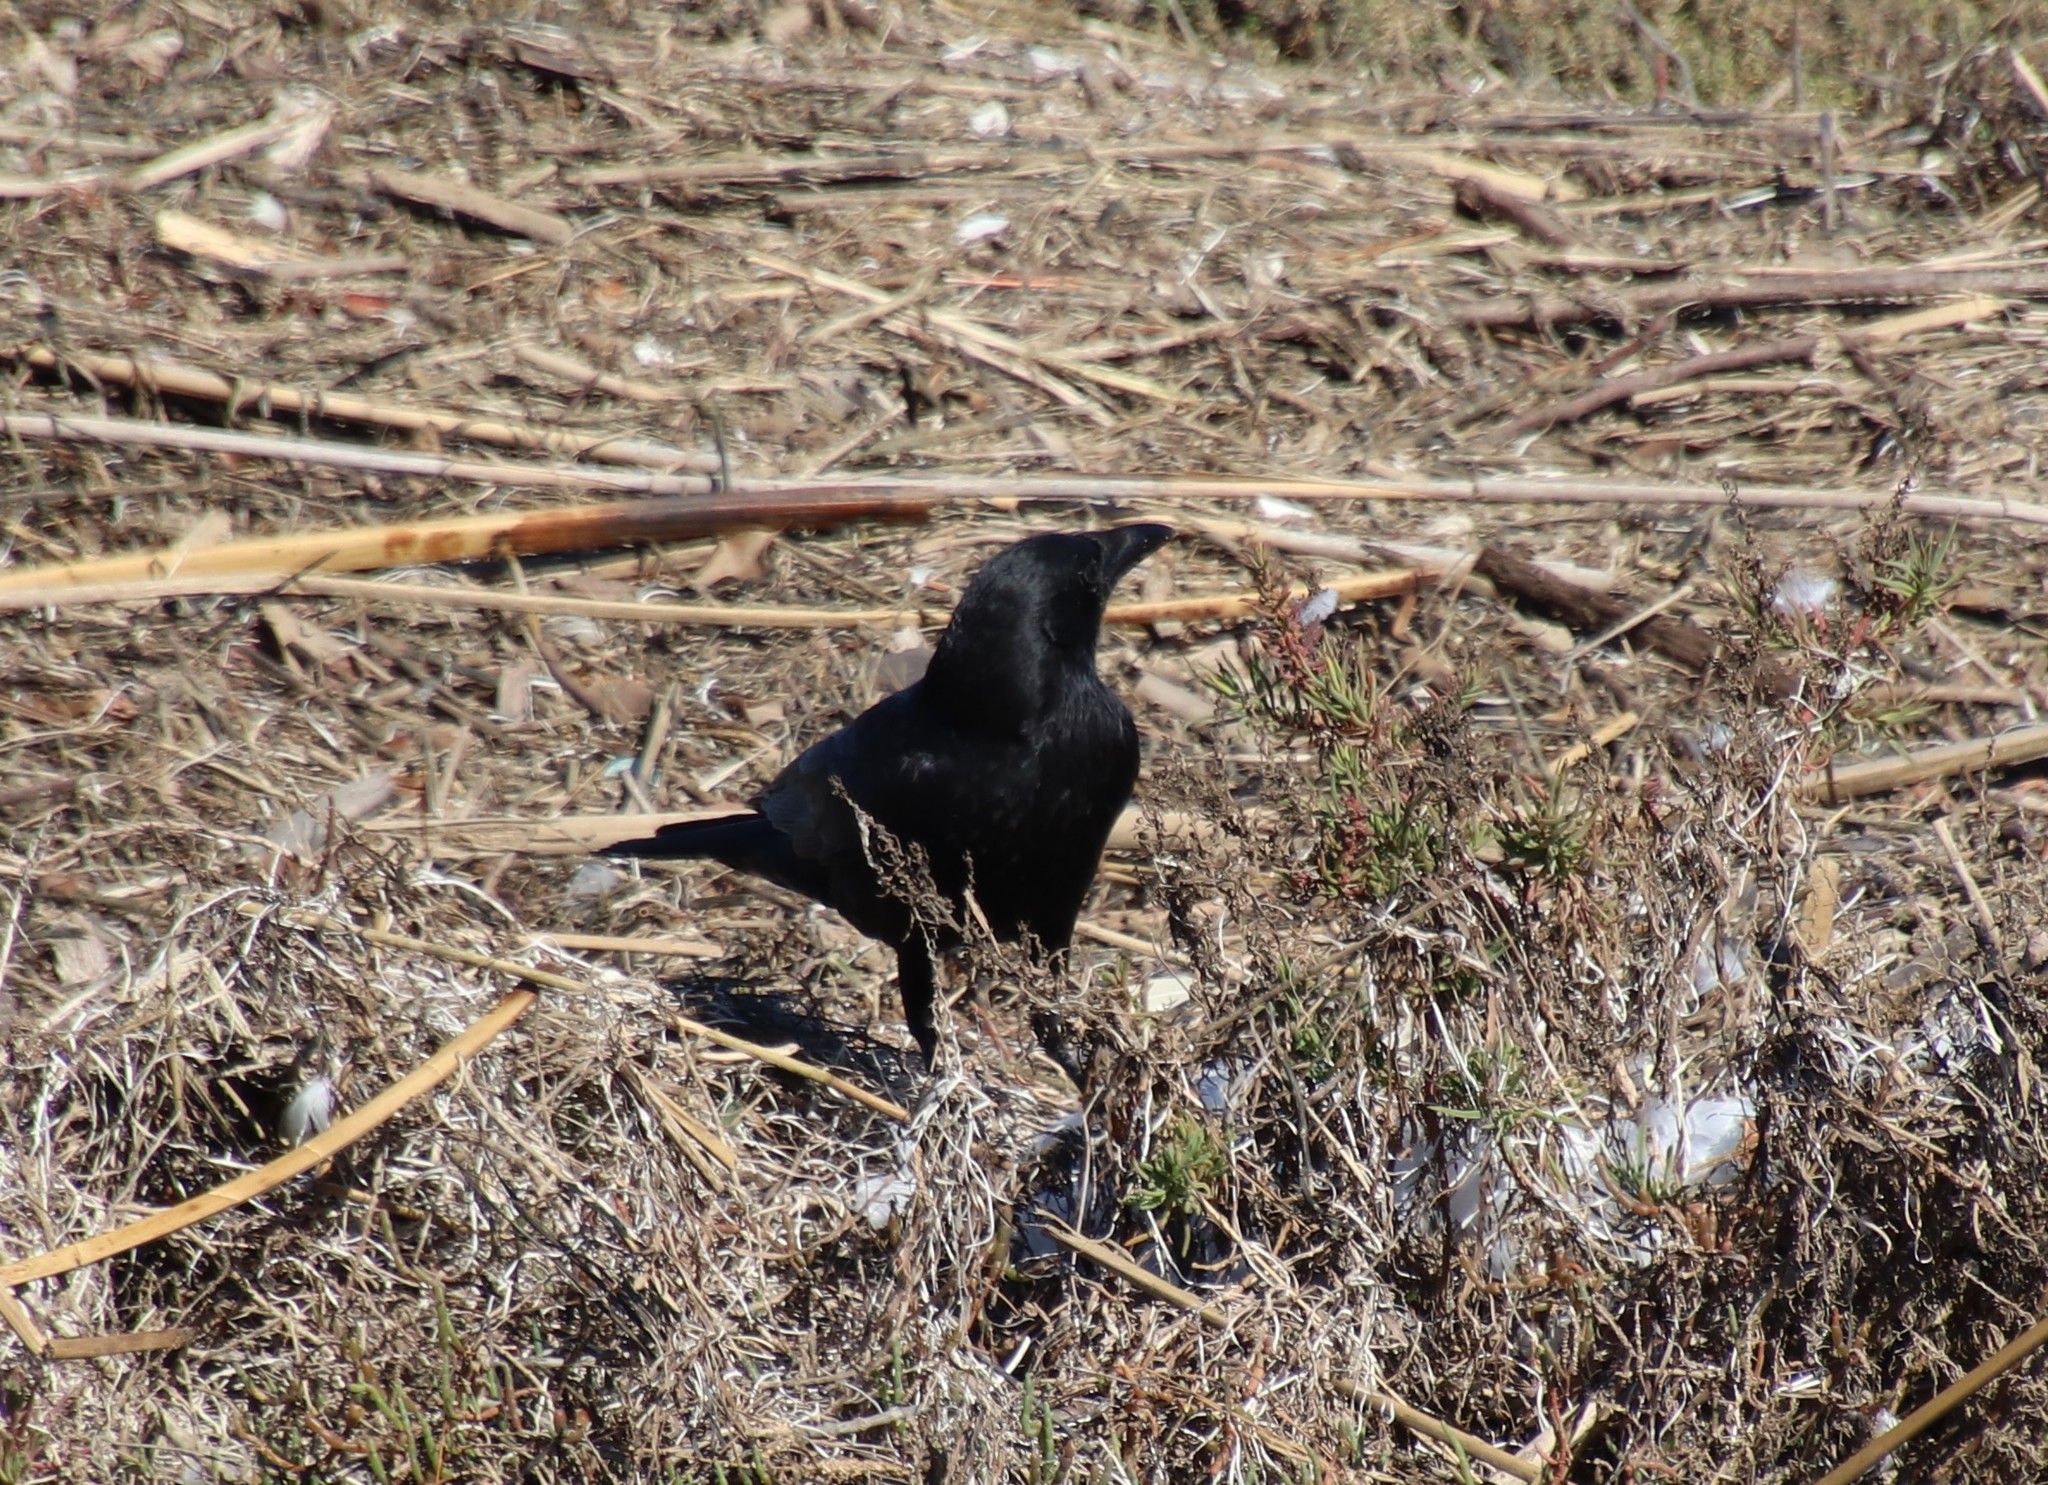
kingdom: Animalia
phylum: Chordata
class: Aves
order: Passeriformes
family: Corvidae
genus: Corvus
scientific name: Corvus brachyrhynchos
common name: American crow
